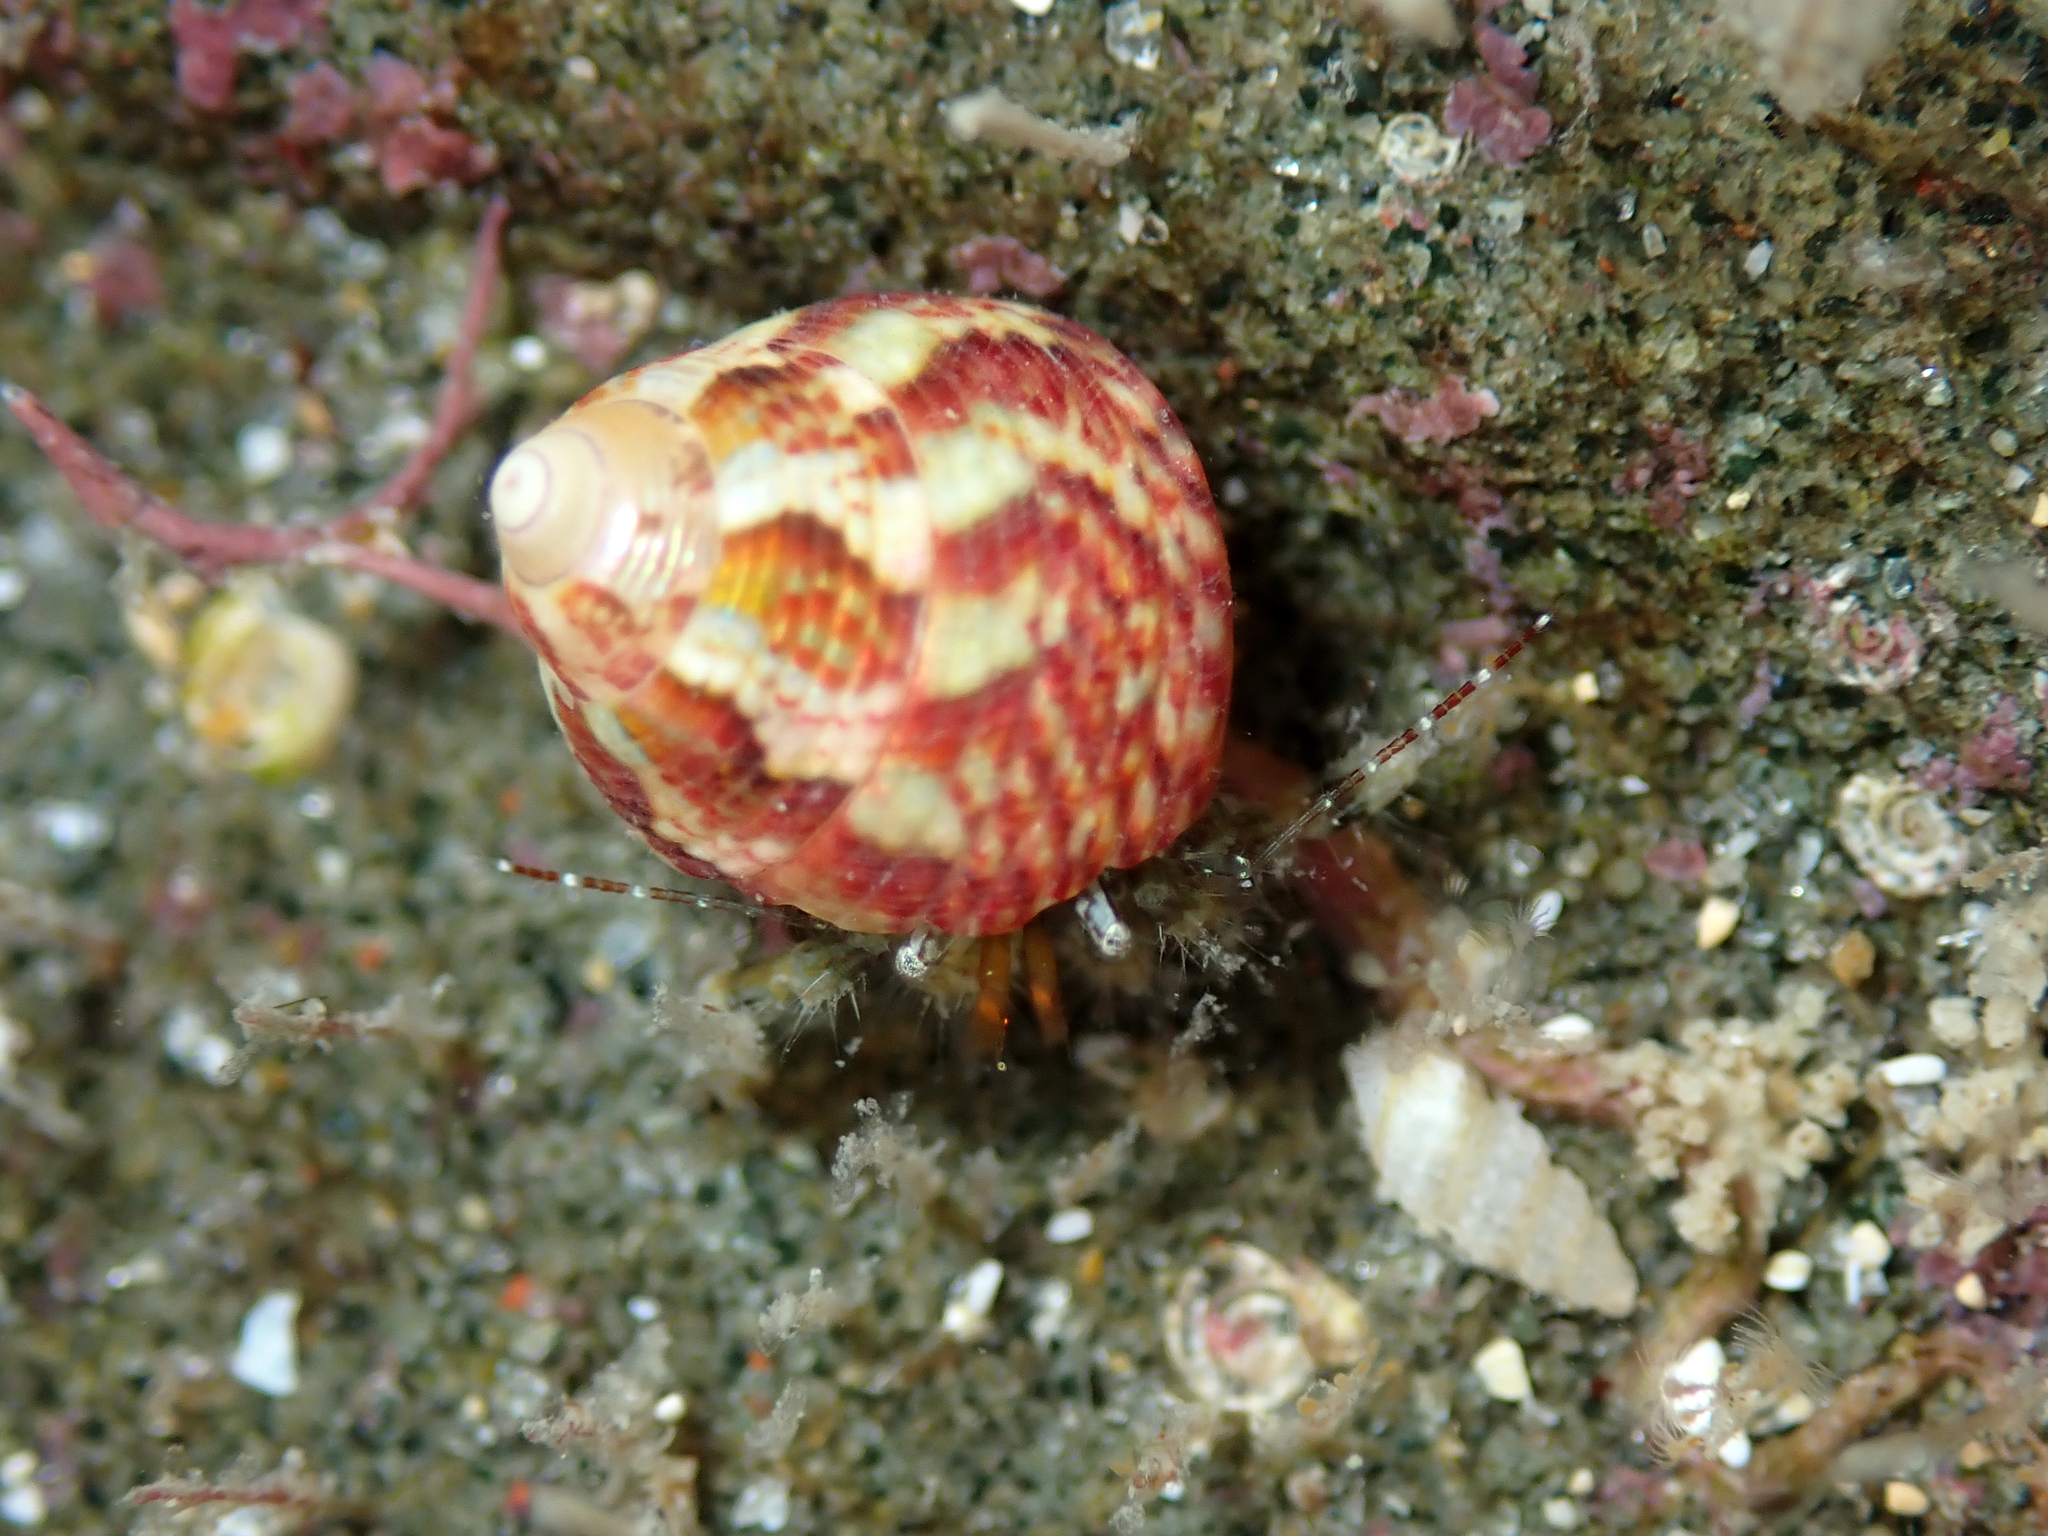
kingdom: Animalia
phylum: Mollusca
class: Gastropoda
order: Trochida
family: Trochidae
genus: Micrelenchus
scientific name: Micrelenchus sanguineus
